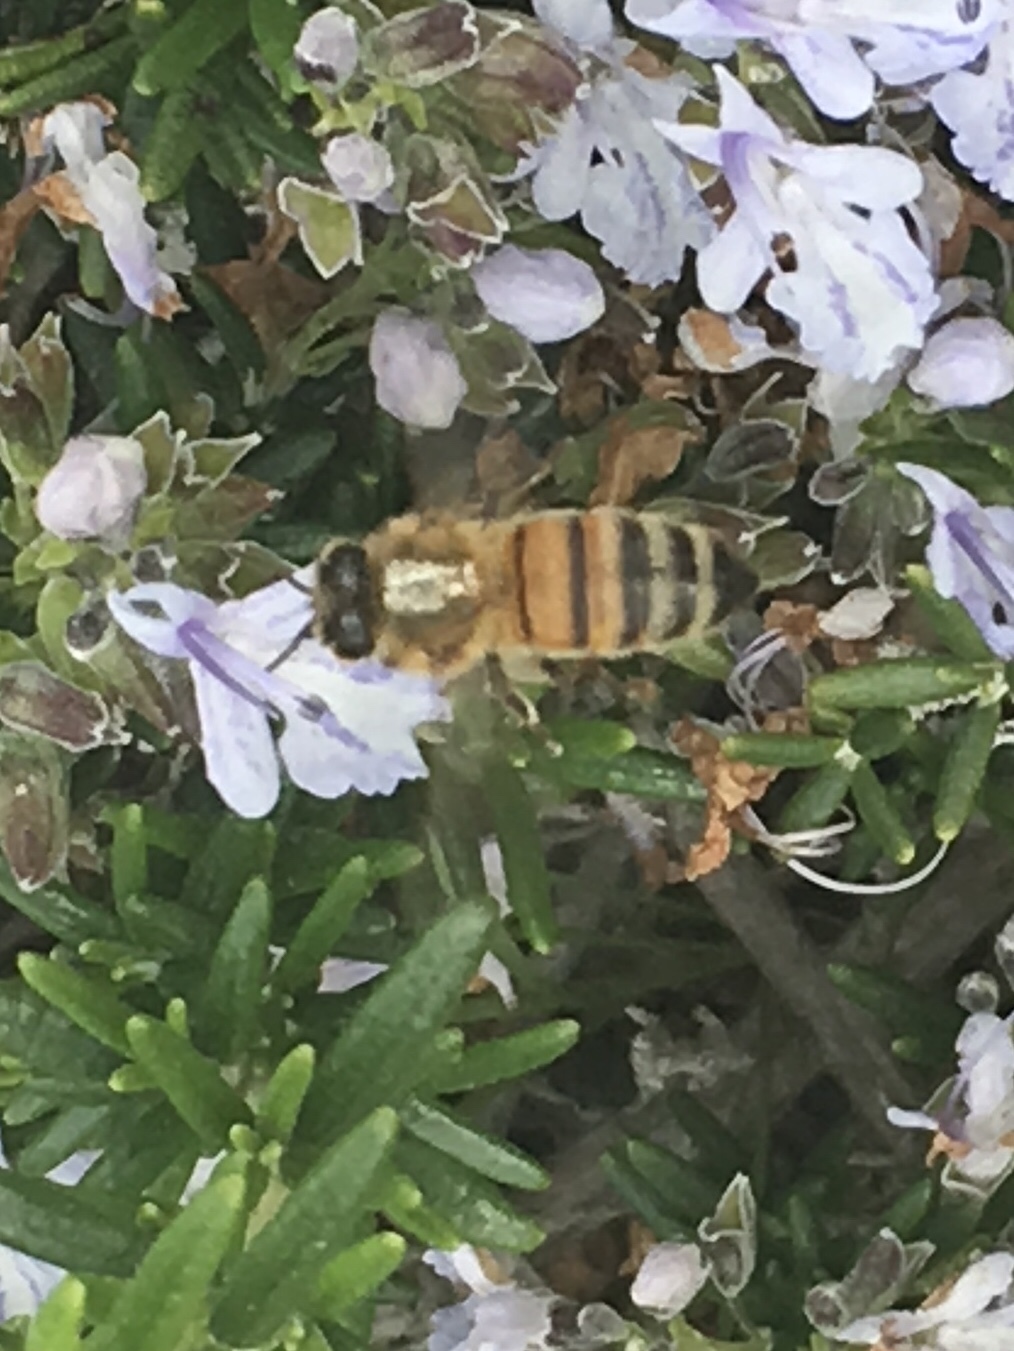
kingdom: Animalia
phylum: Arthropoda
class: Insecta
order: Hymenoptera
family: Apidae
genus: Apis
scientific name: Apis mellifera
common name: Honey bee
